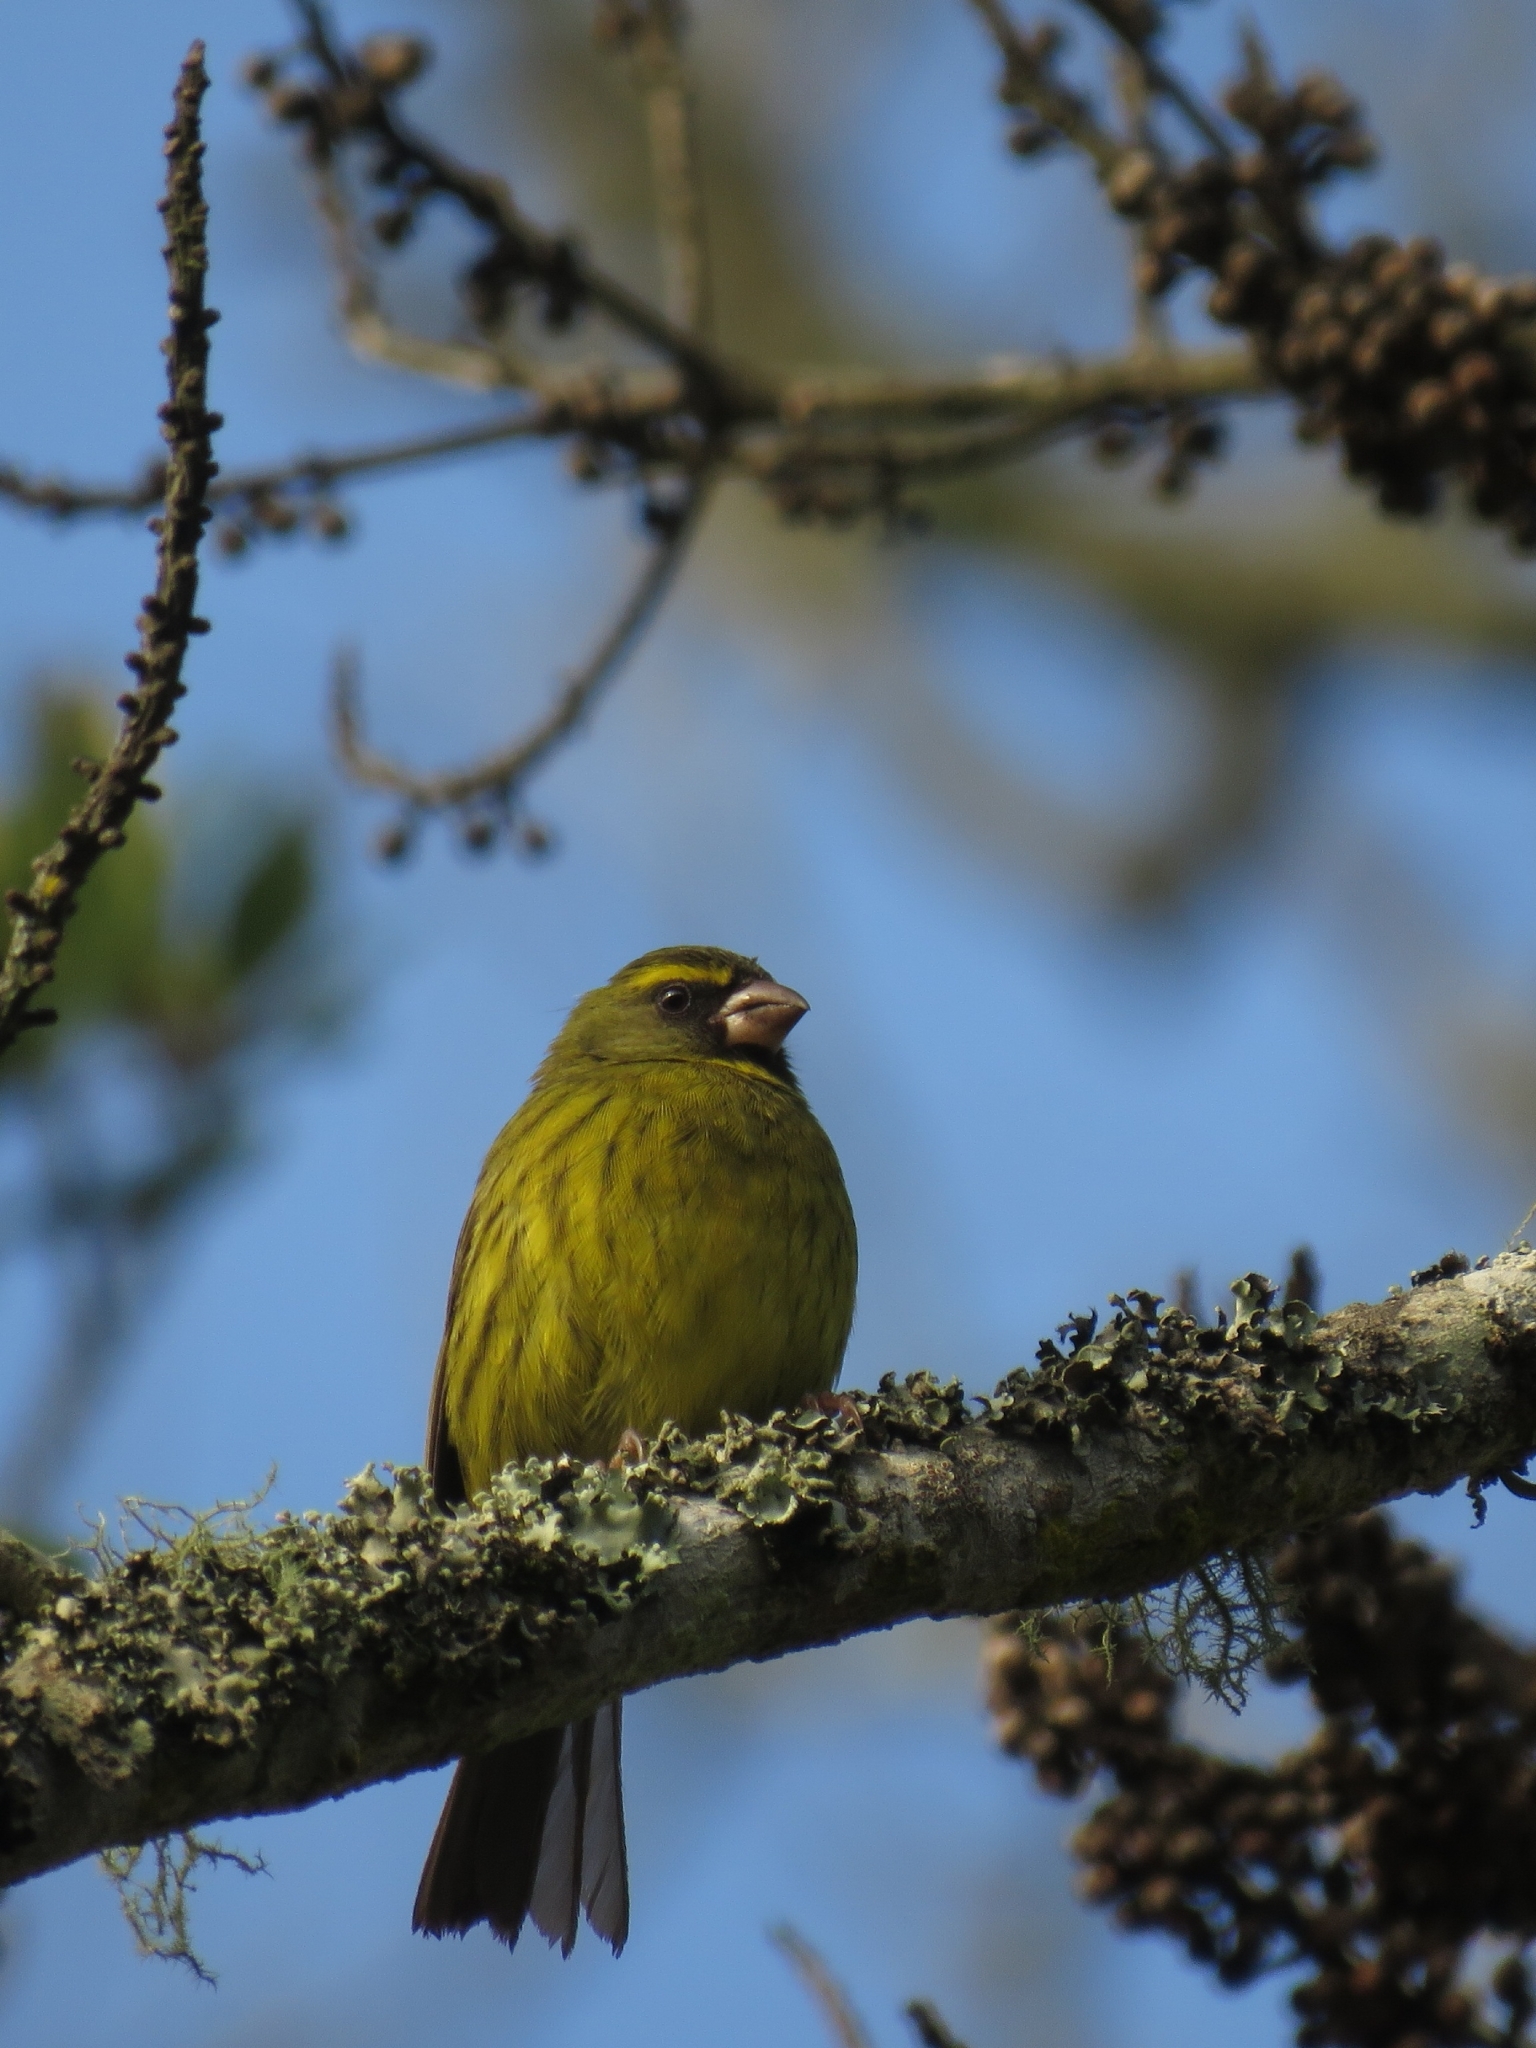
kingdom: Animalia
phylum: Chordata
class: Aves
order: Passeriformes
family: Fringillidae
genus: Crithagra
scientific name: Crithagra scotops
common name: Forest canary
